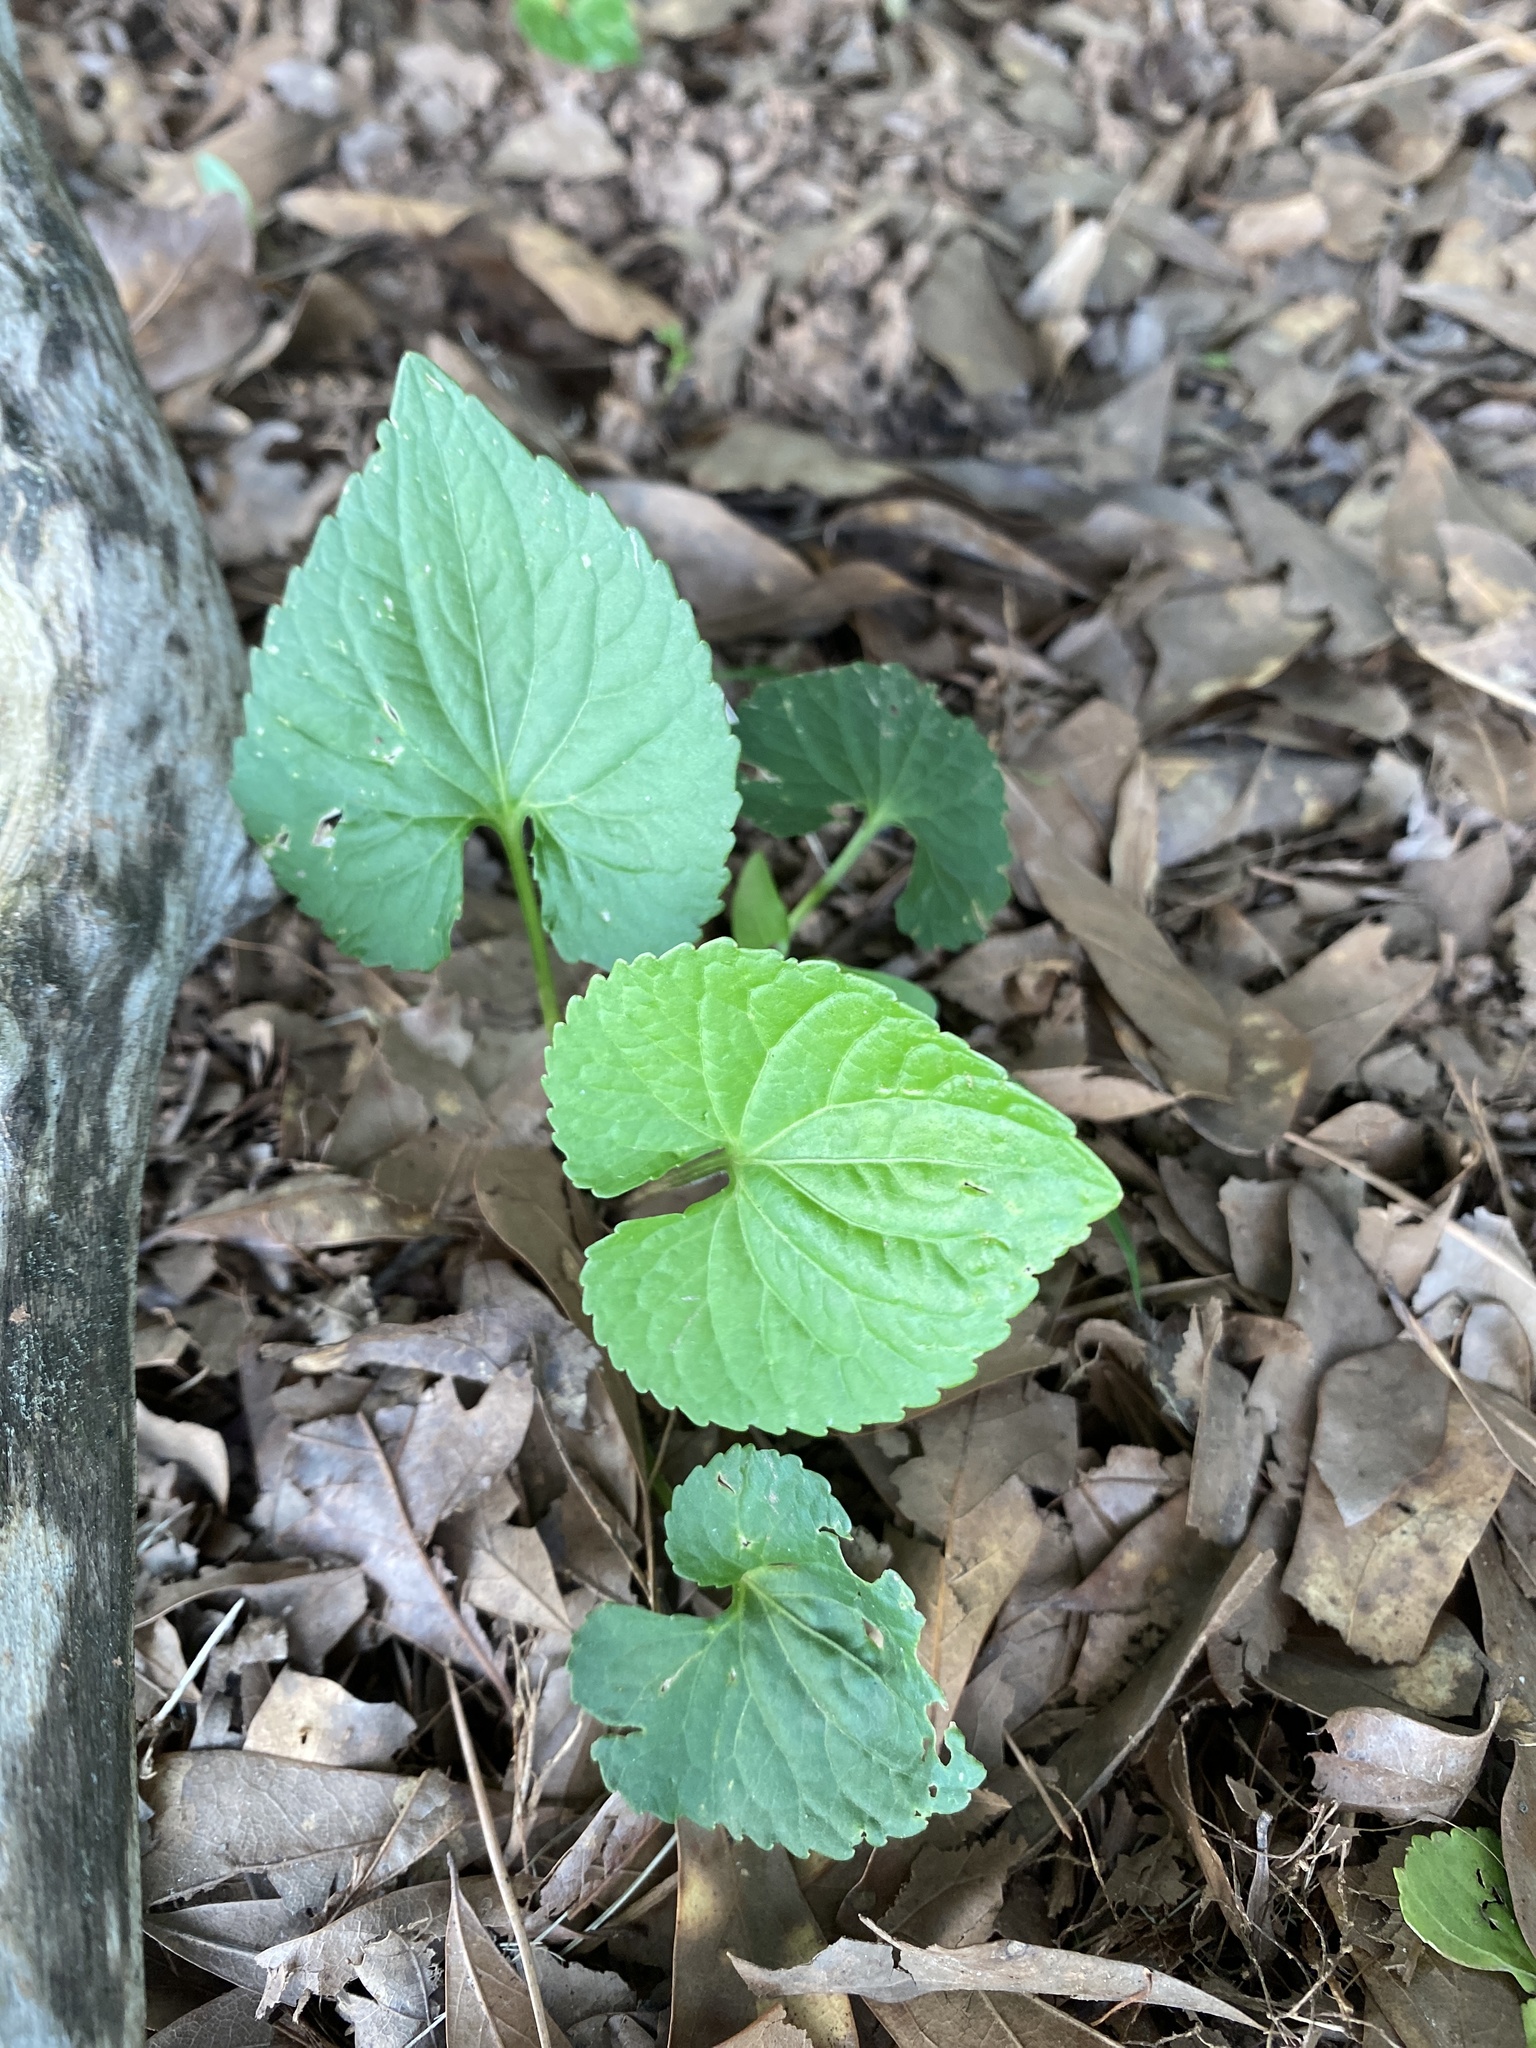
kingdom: Plantae
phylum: Tracheophyta
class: Magnoliopsida
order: Malpighiales
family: Violaceae
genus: Viola
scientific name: Viola sororia
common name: Dooryard violet
